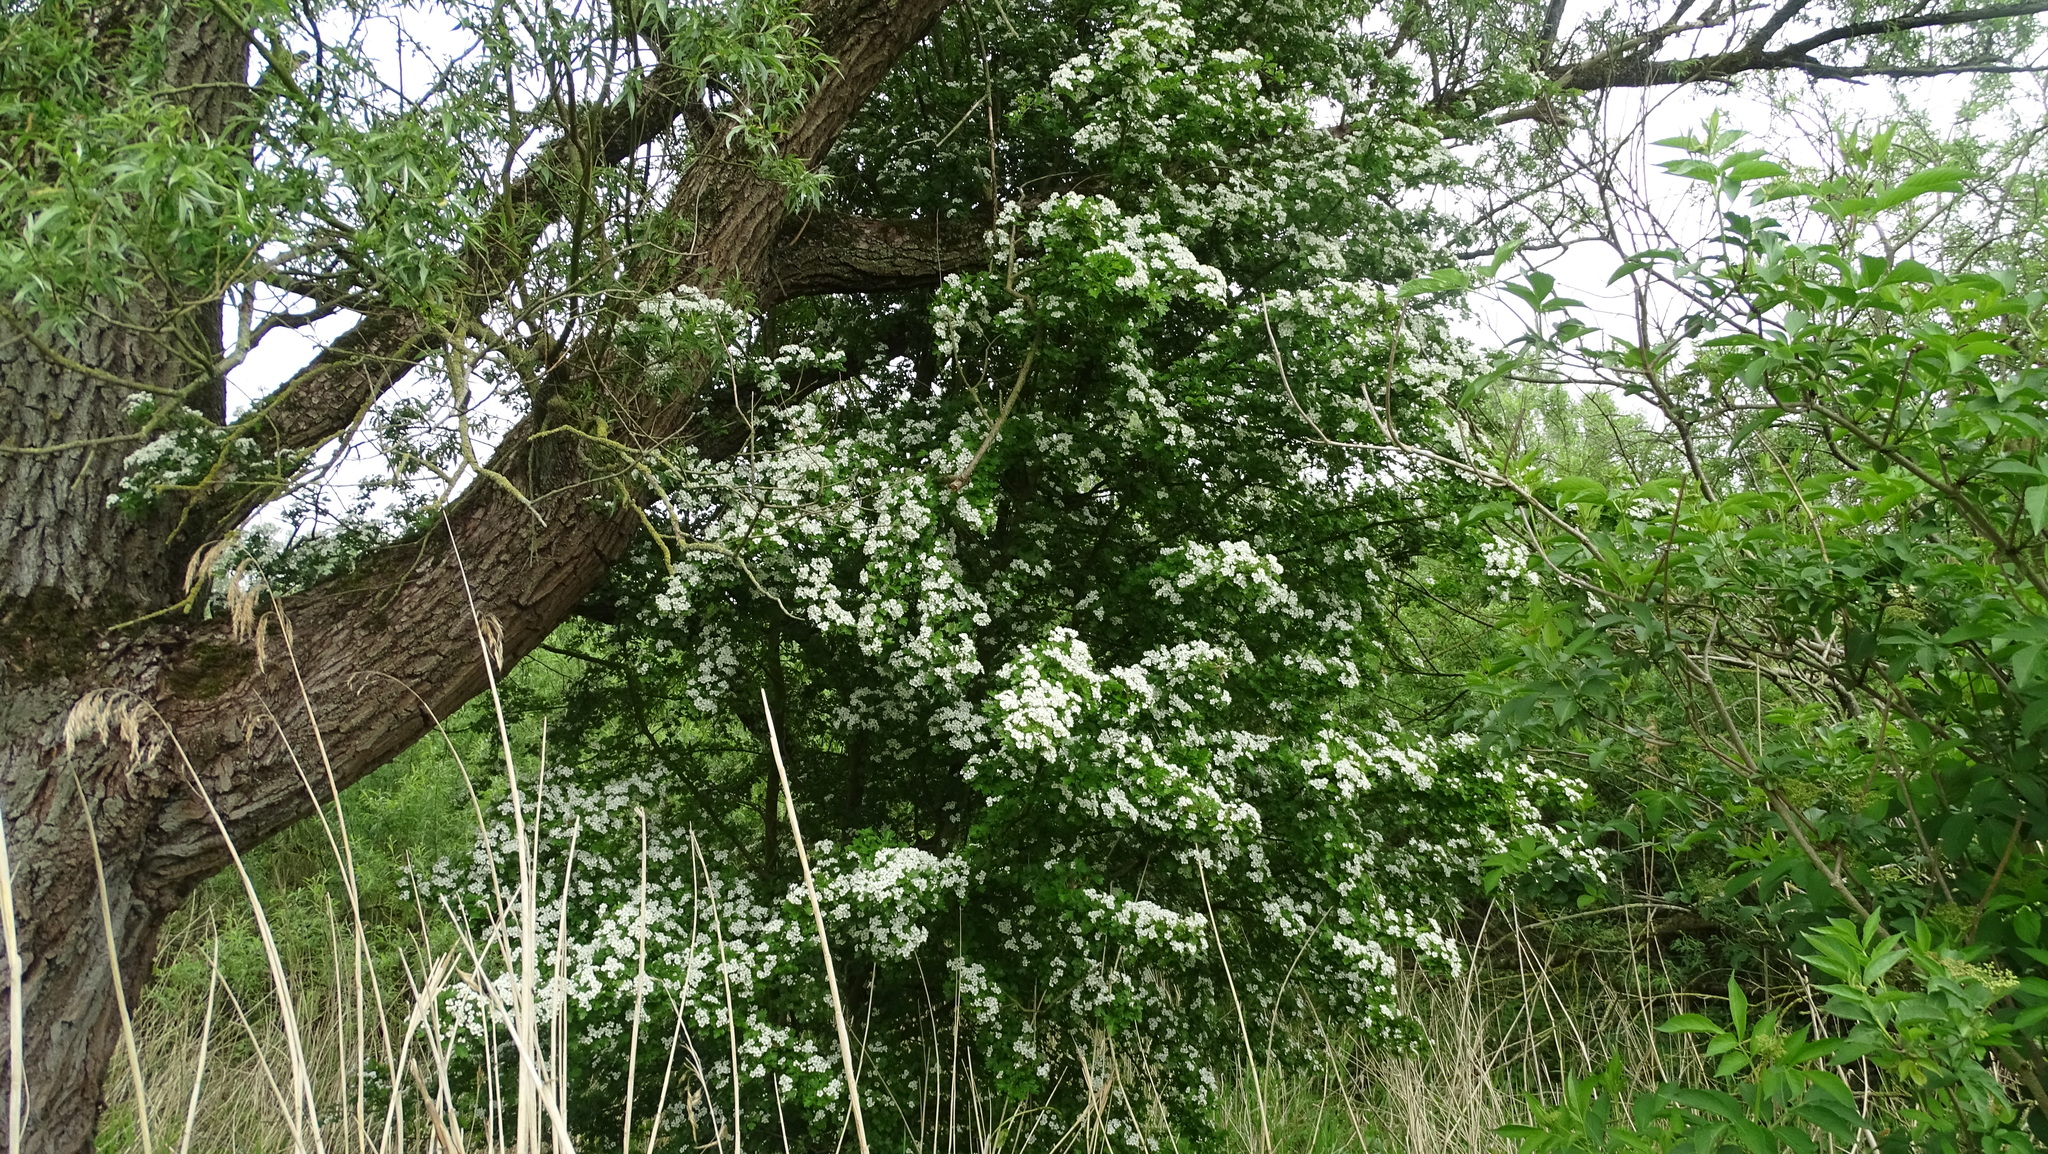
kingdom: Plantae
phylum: Tracheophyta
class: Magnoliopsida
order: Rosales
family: Rosaceae
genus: Crataegus
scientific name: Crataegus monogyna
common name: Hawthorn
